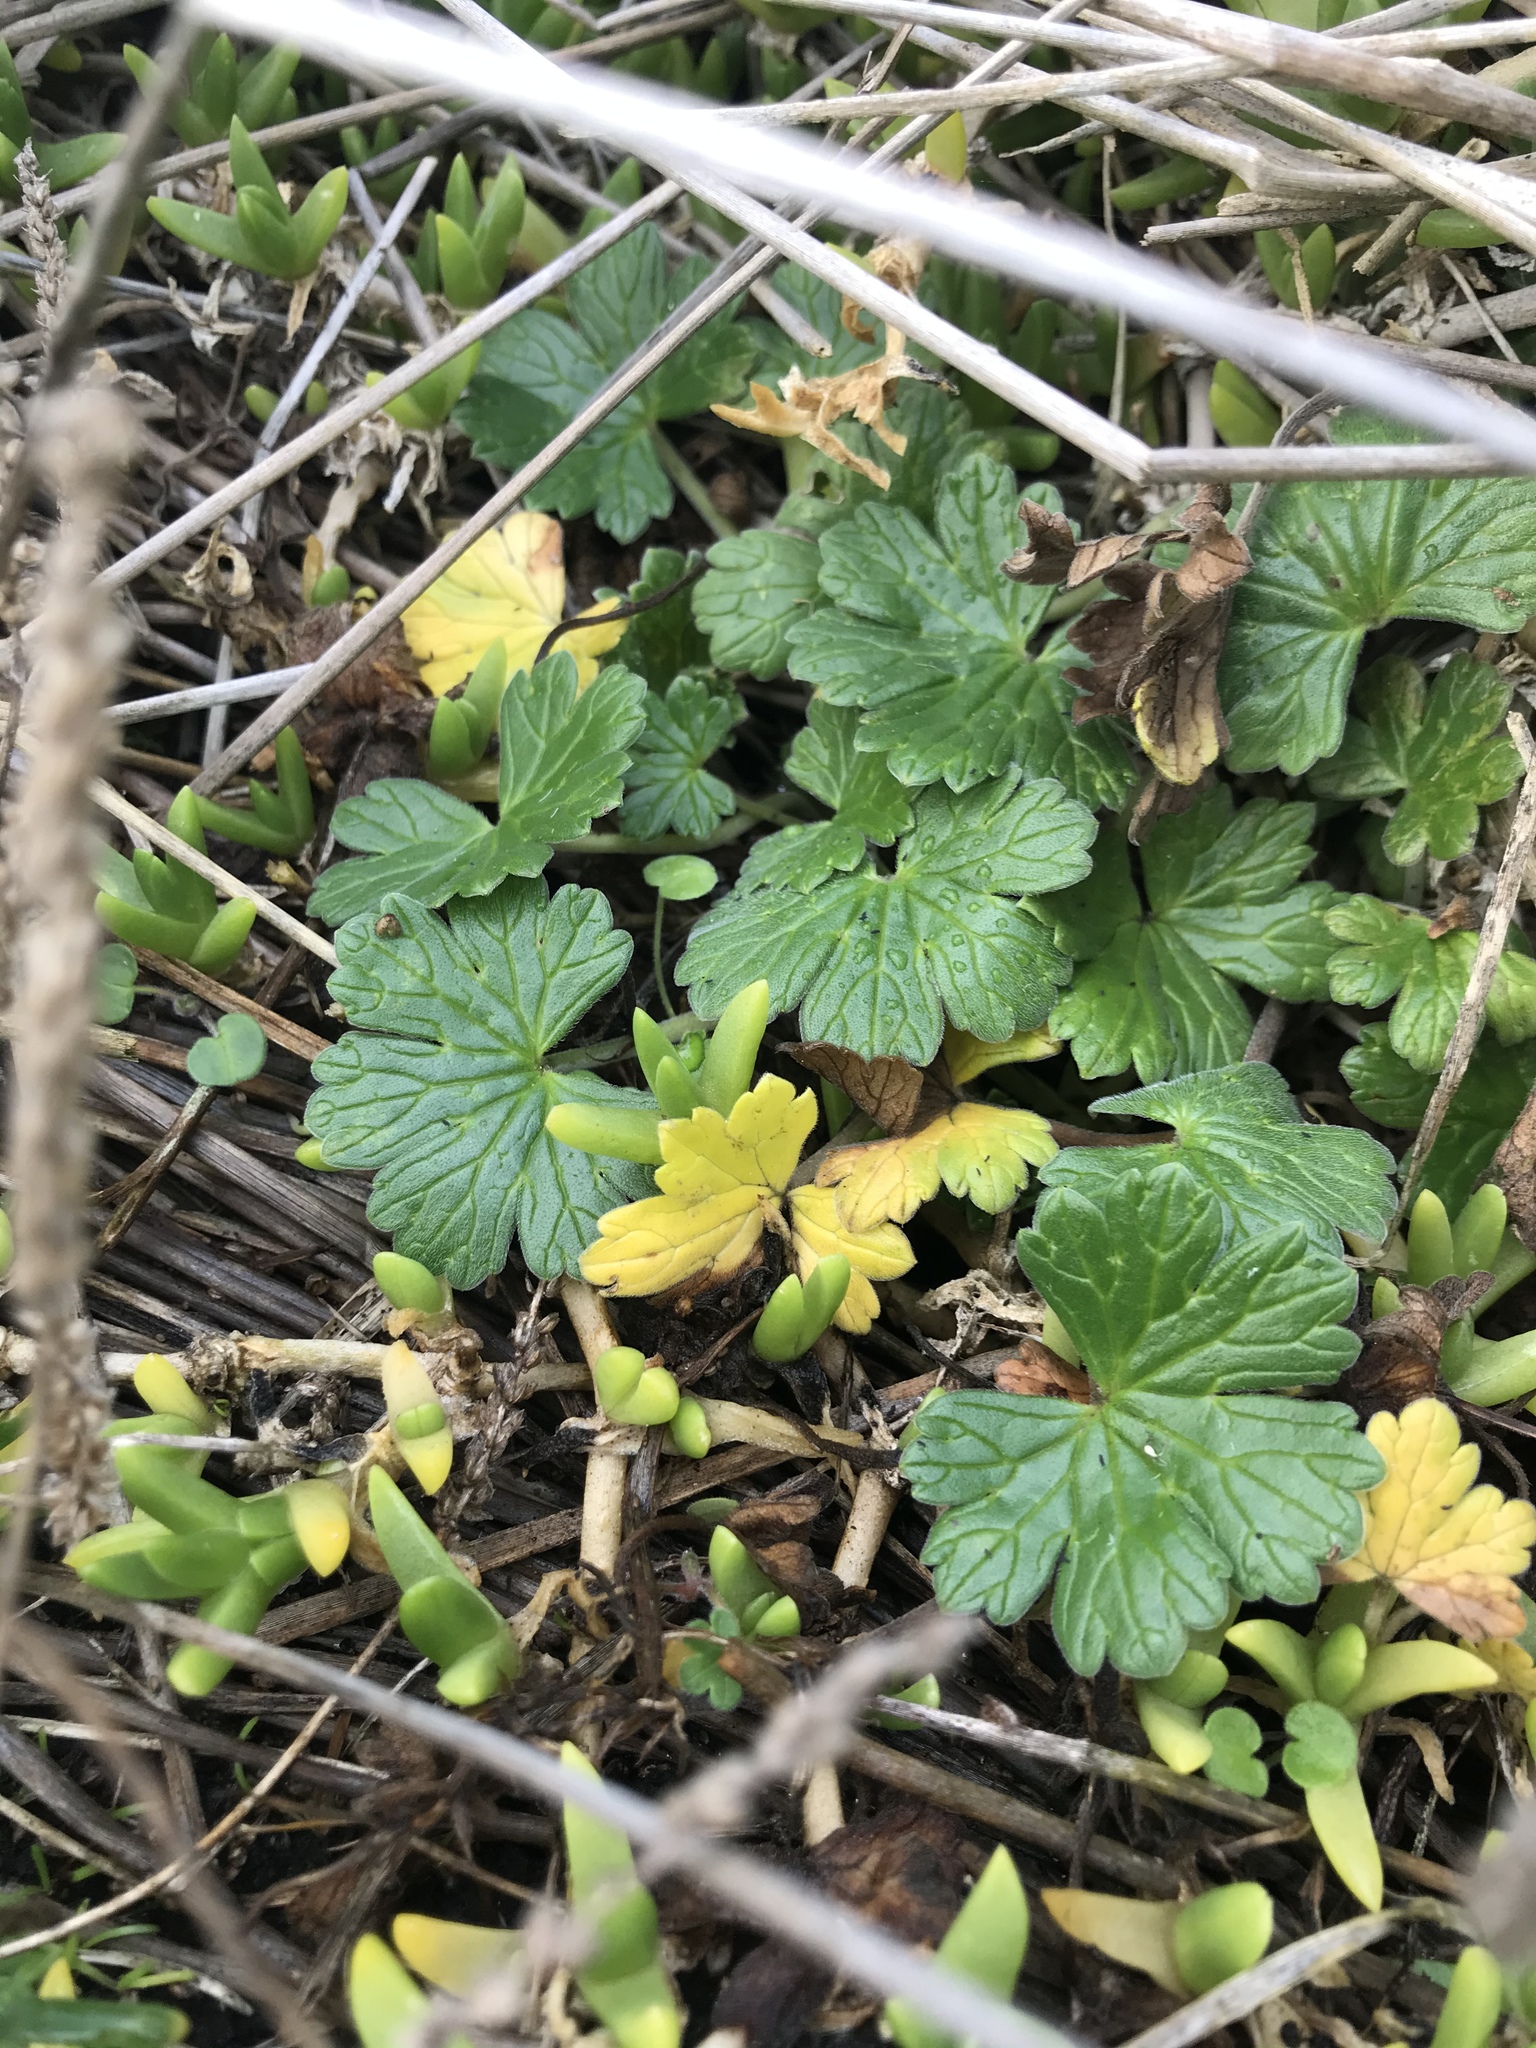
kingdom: Plantae
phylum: Tracheophyta
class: Magnoliopsida
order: Geraniales
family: Geraniaceae
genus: Geranium
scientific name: Geranium traversii
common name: Cranesbill
